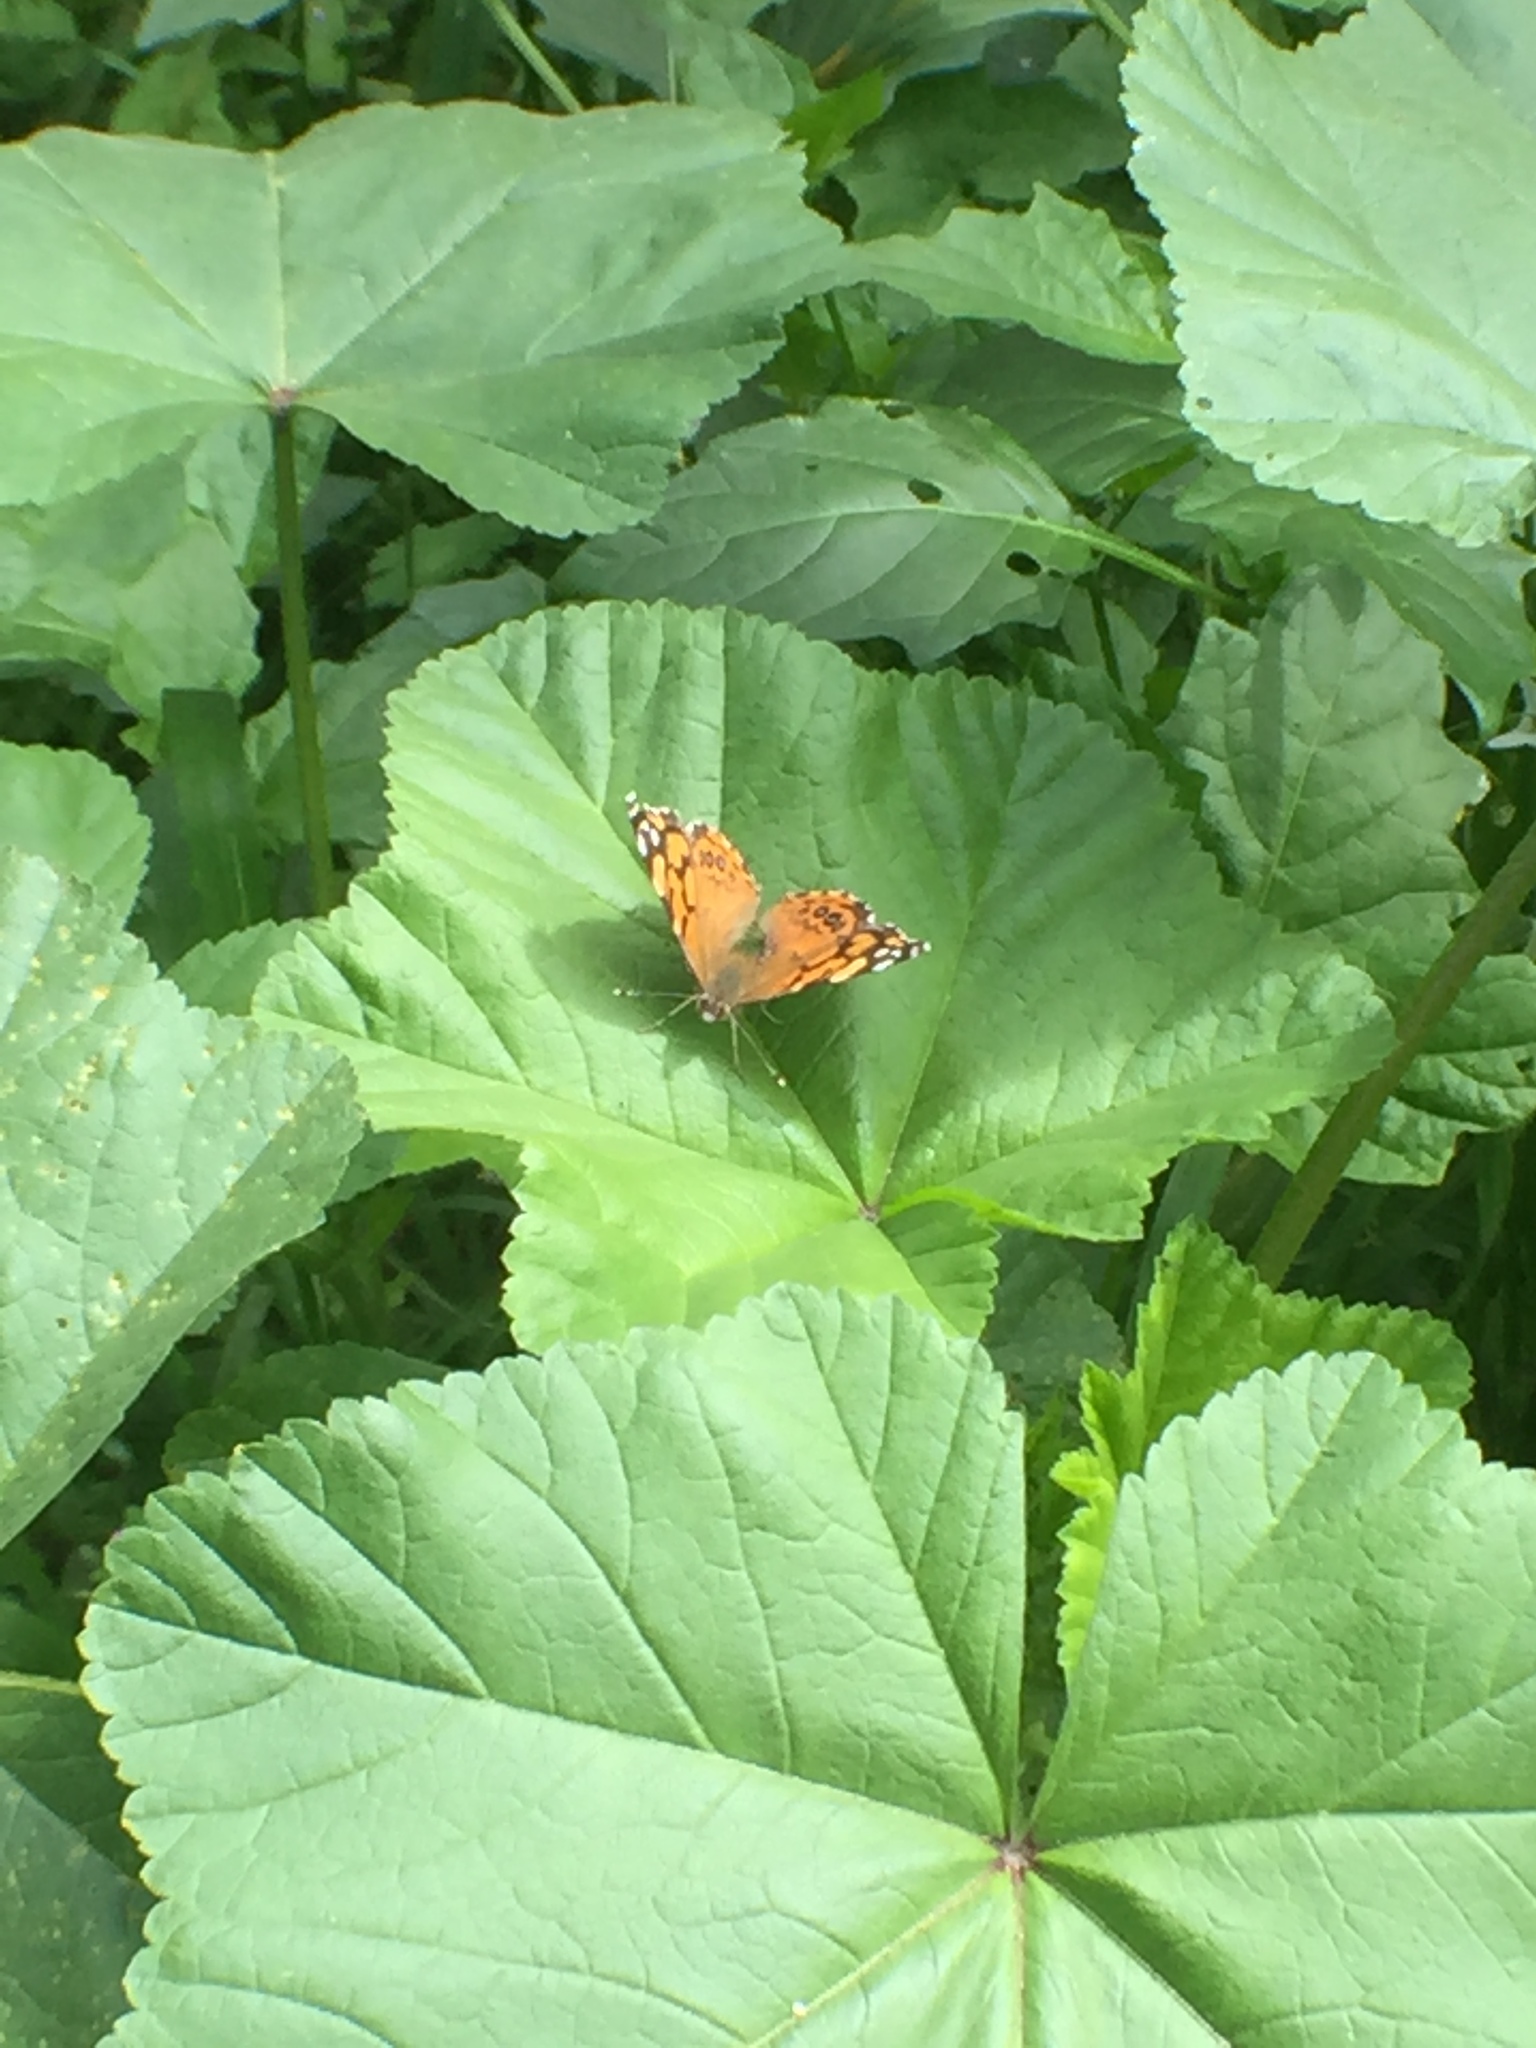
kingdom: Animalia
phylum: Arthropoda
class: Insecta
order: Lepidoptera
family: Nymphalidae
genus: Vanessa
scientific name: Vanessa annabella
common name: West coast lady
